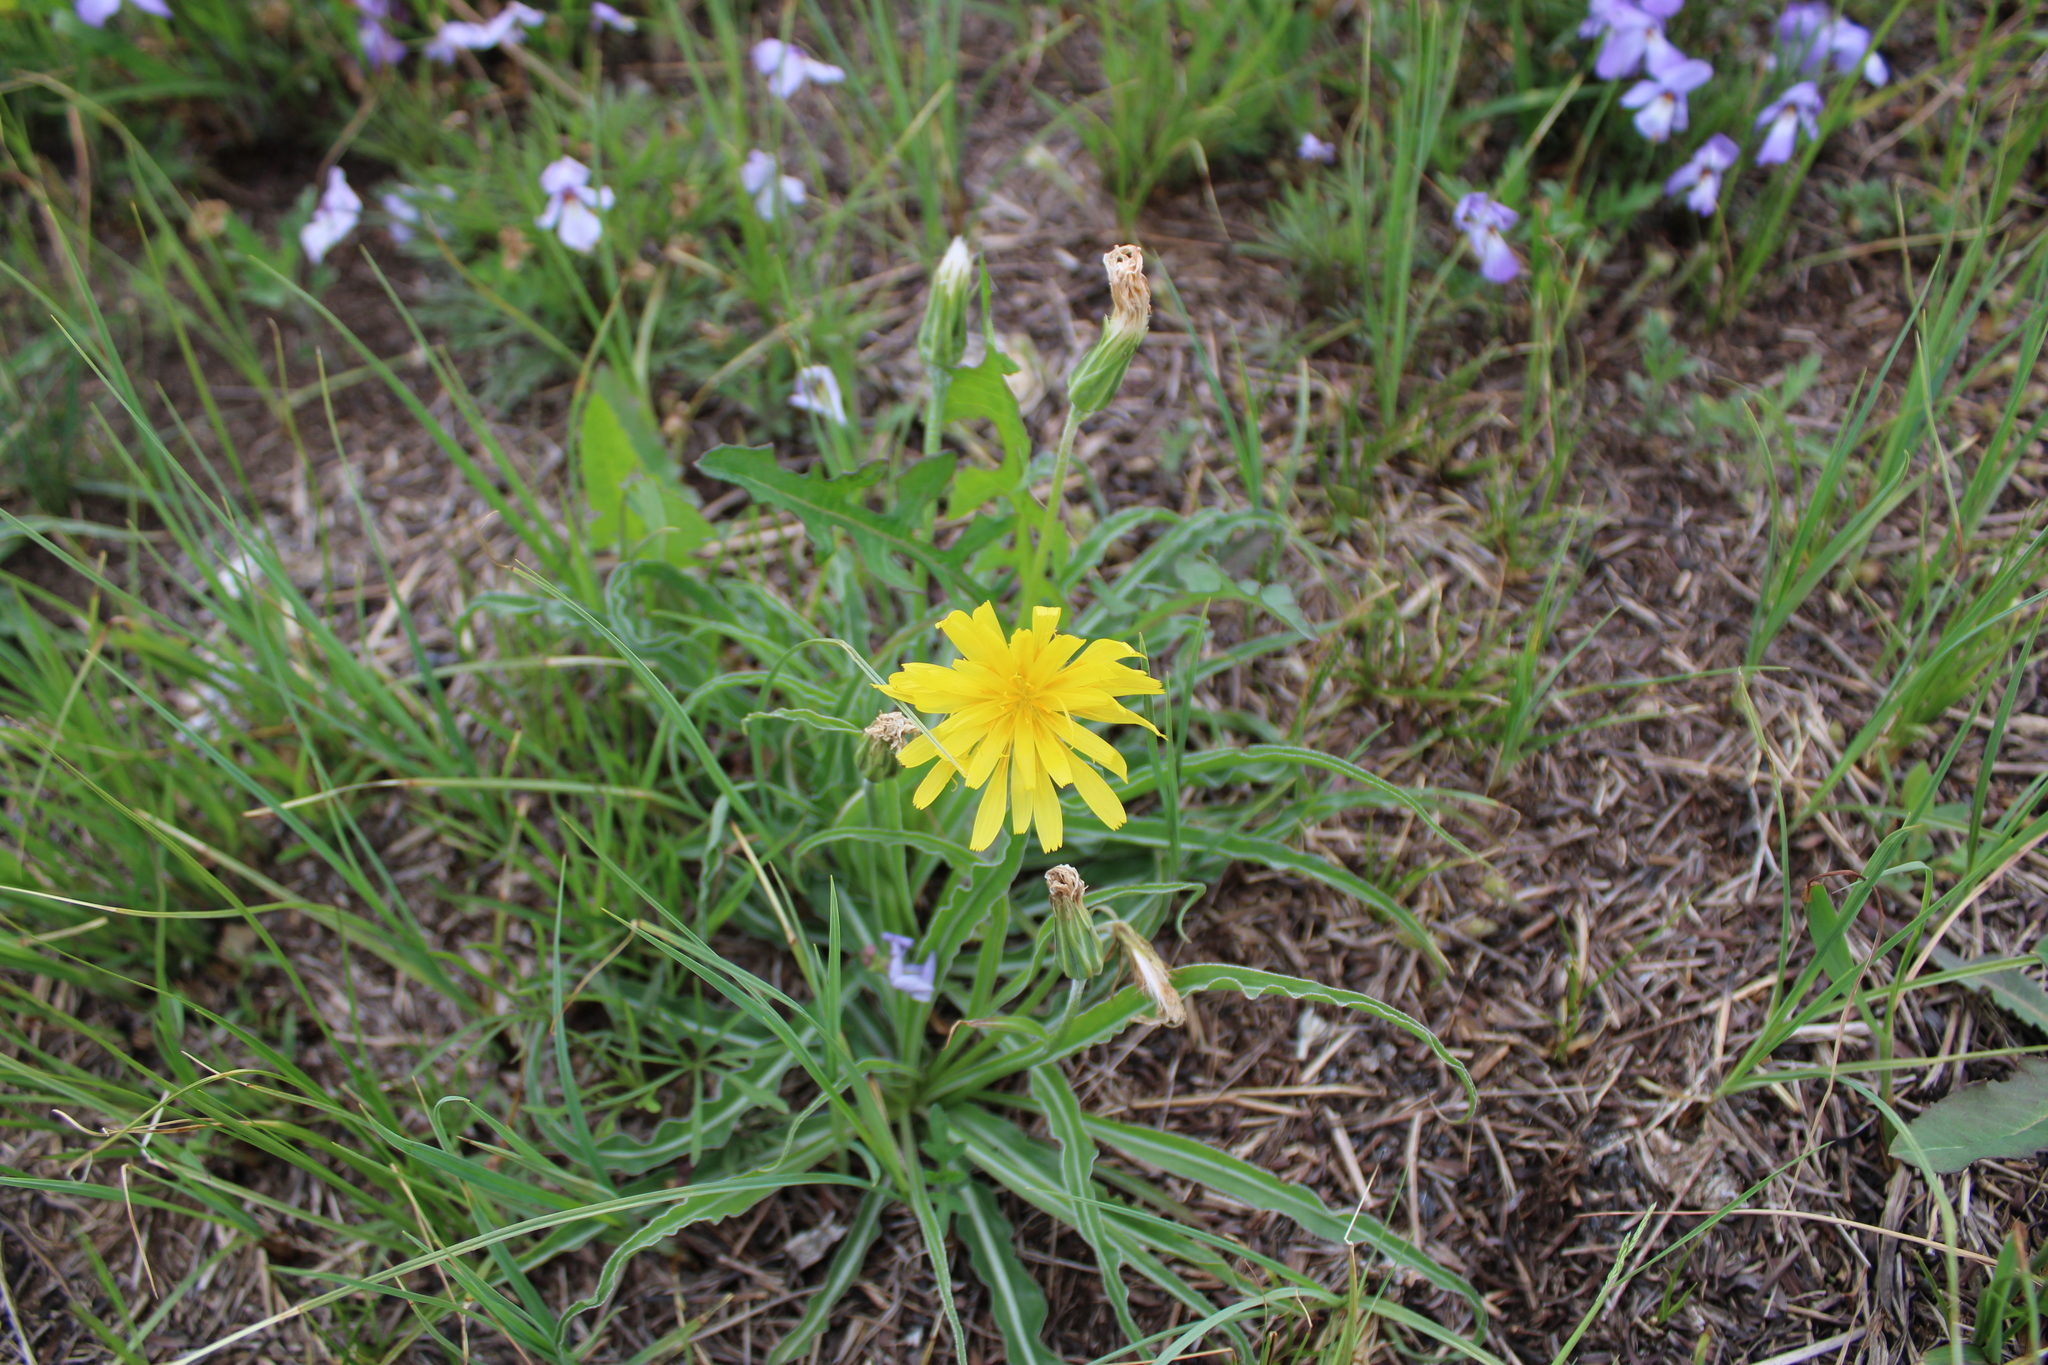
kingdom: Plantae
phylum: Tracheophyta
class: Magnoliopsida
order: Asterales
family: Asteraceae
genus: Microseris
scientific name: Microseris cuspidata
